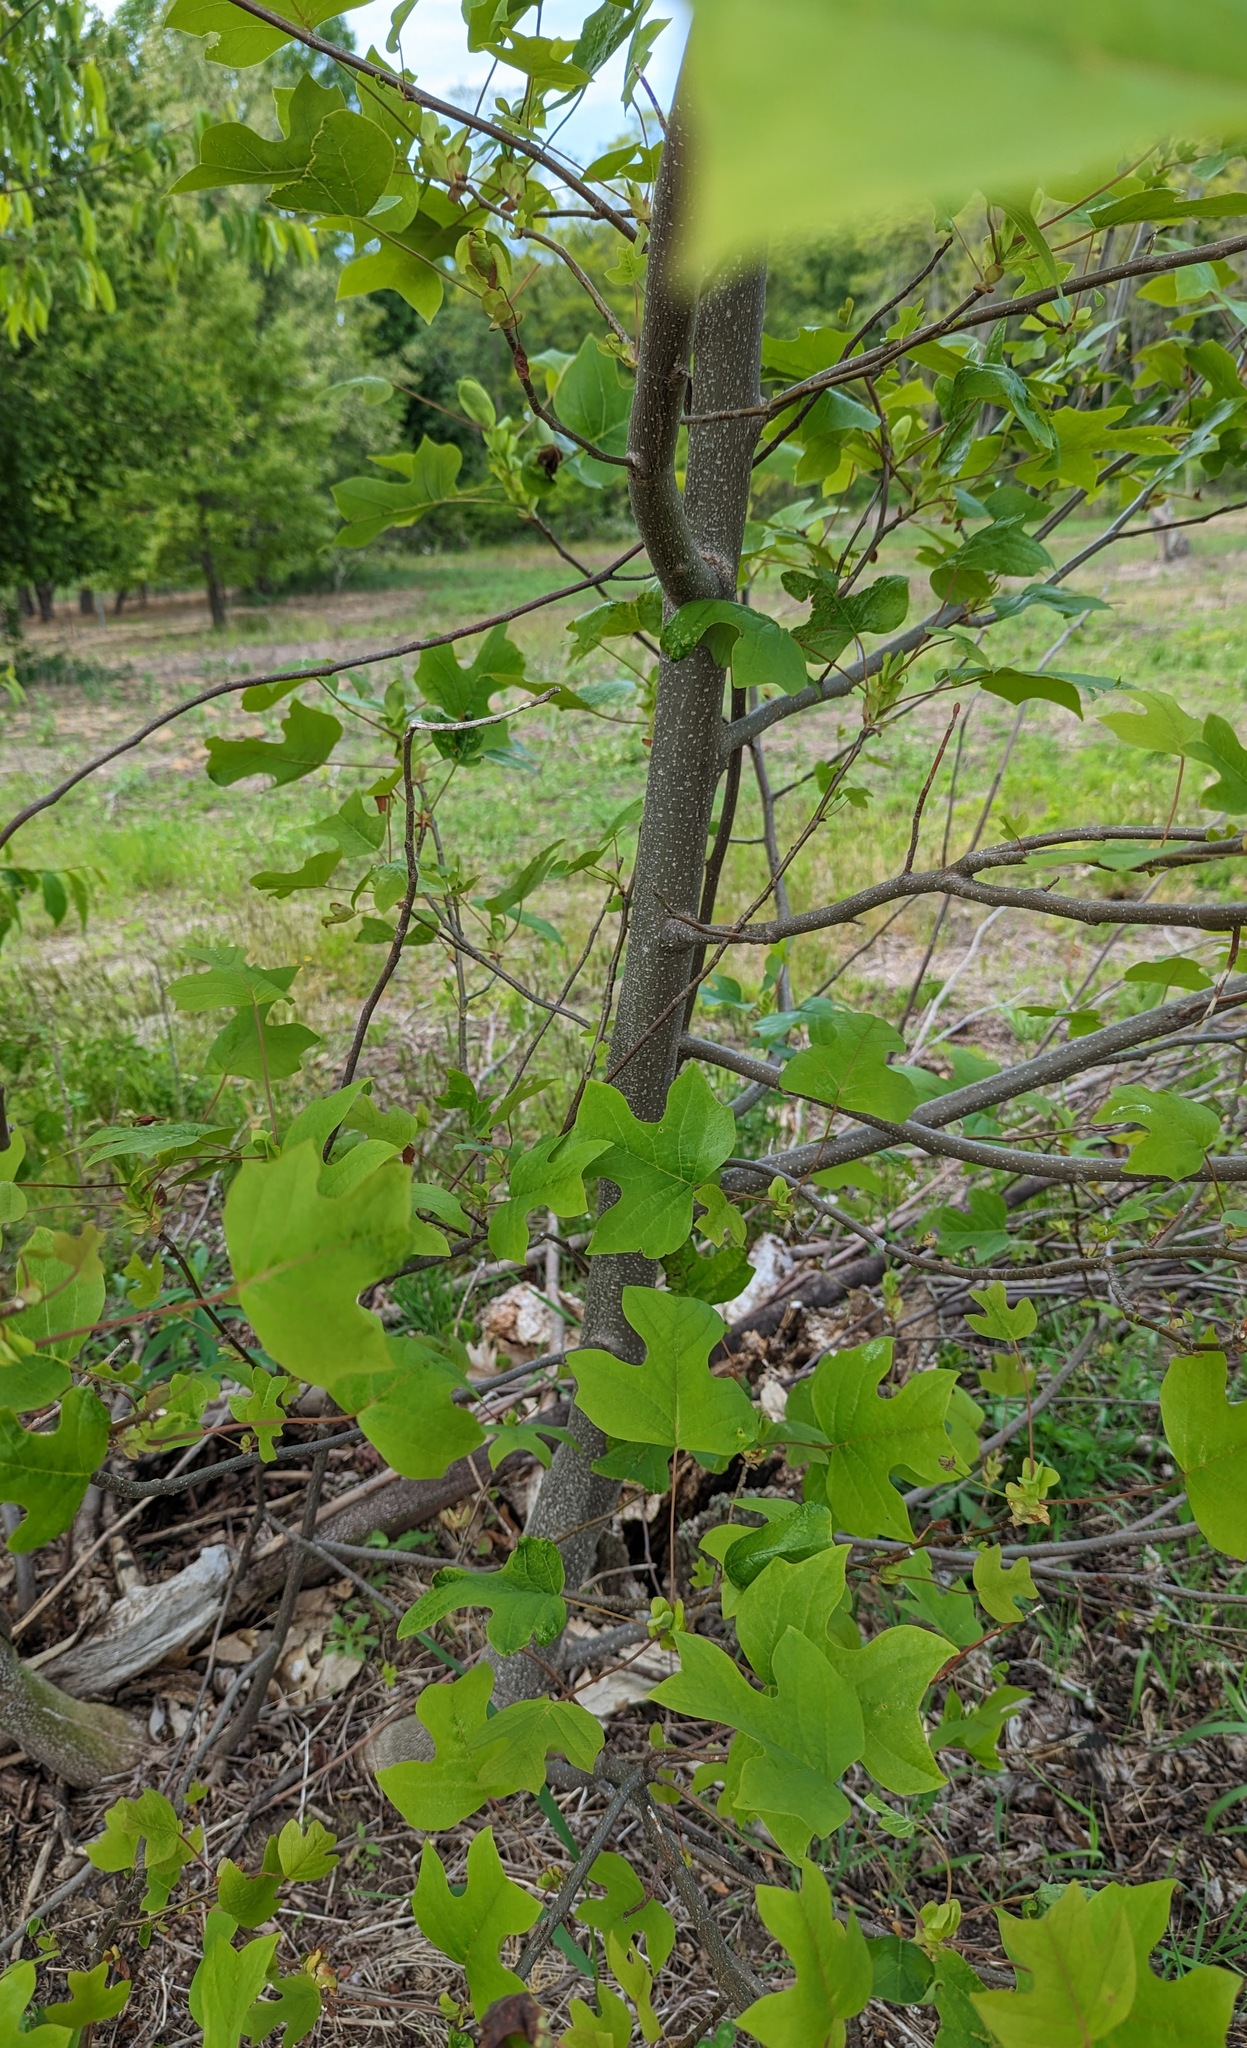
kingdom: Plantae
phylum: Tracheophyta
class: Magnoliopsida
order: Magnoliales
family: Magnoliaceae
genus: Liriodendron
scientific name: Liriodendron tulipifera
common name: Tulip tree
